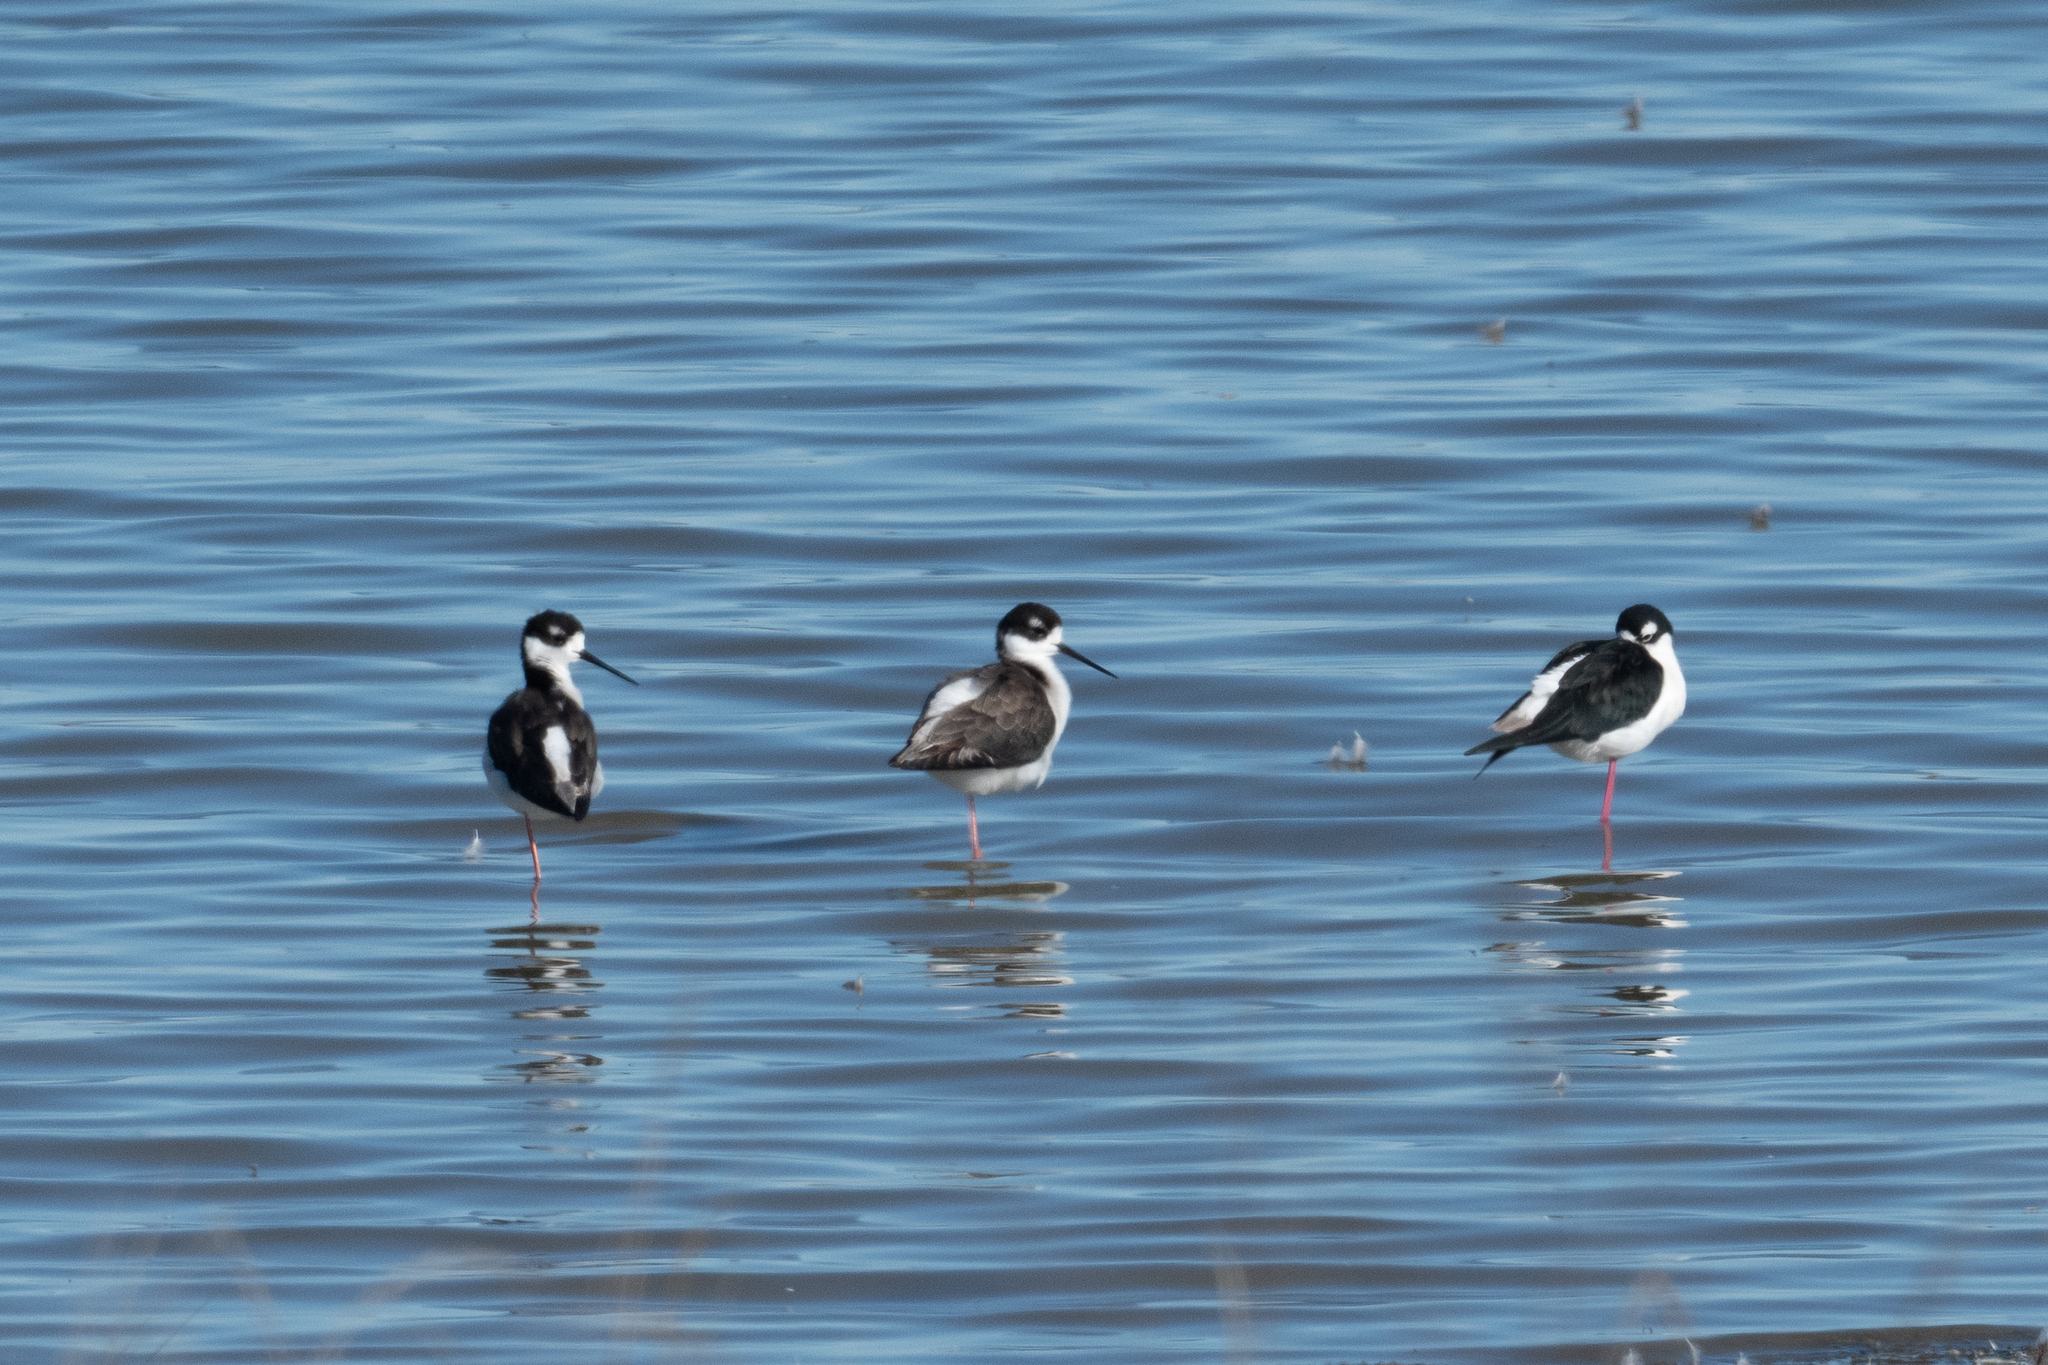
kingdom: Animalia
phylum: Chordata
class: Aves
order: Charadriiformes
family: Recurvirostridae
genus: Himantopus
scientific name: Himantopus mexicanus
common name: Black-necked stilt
